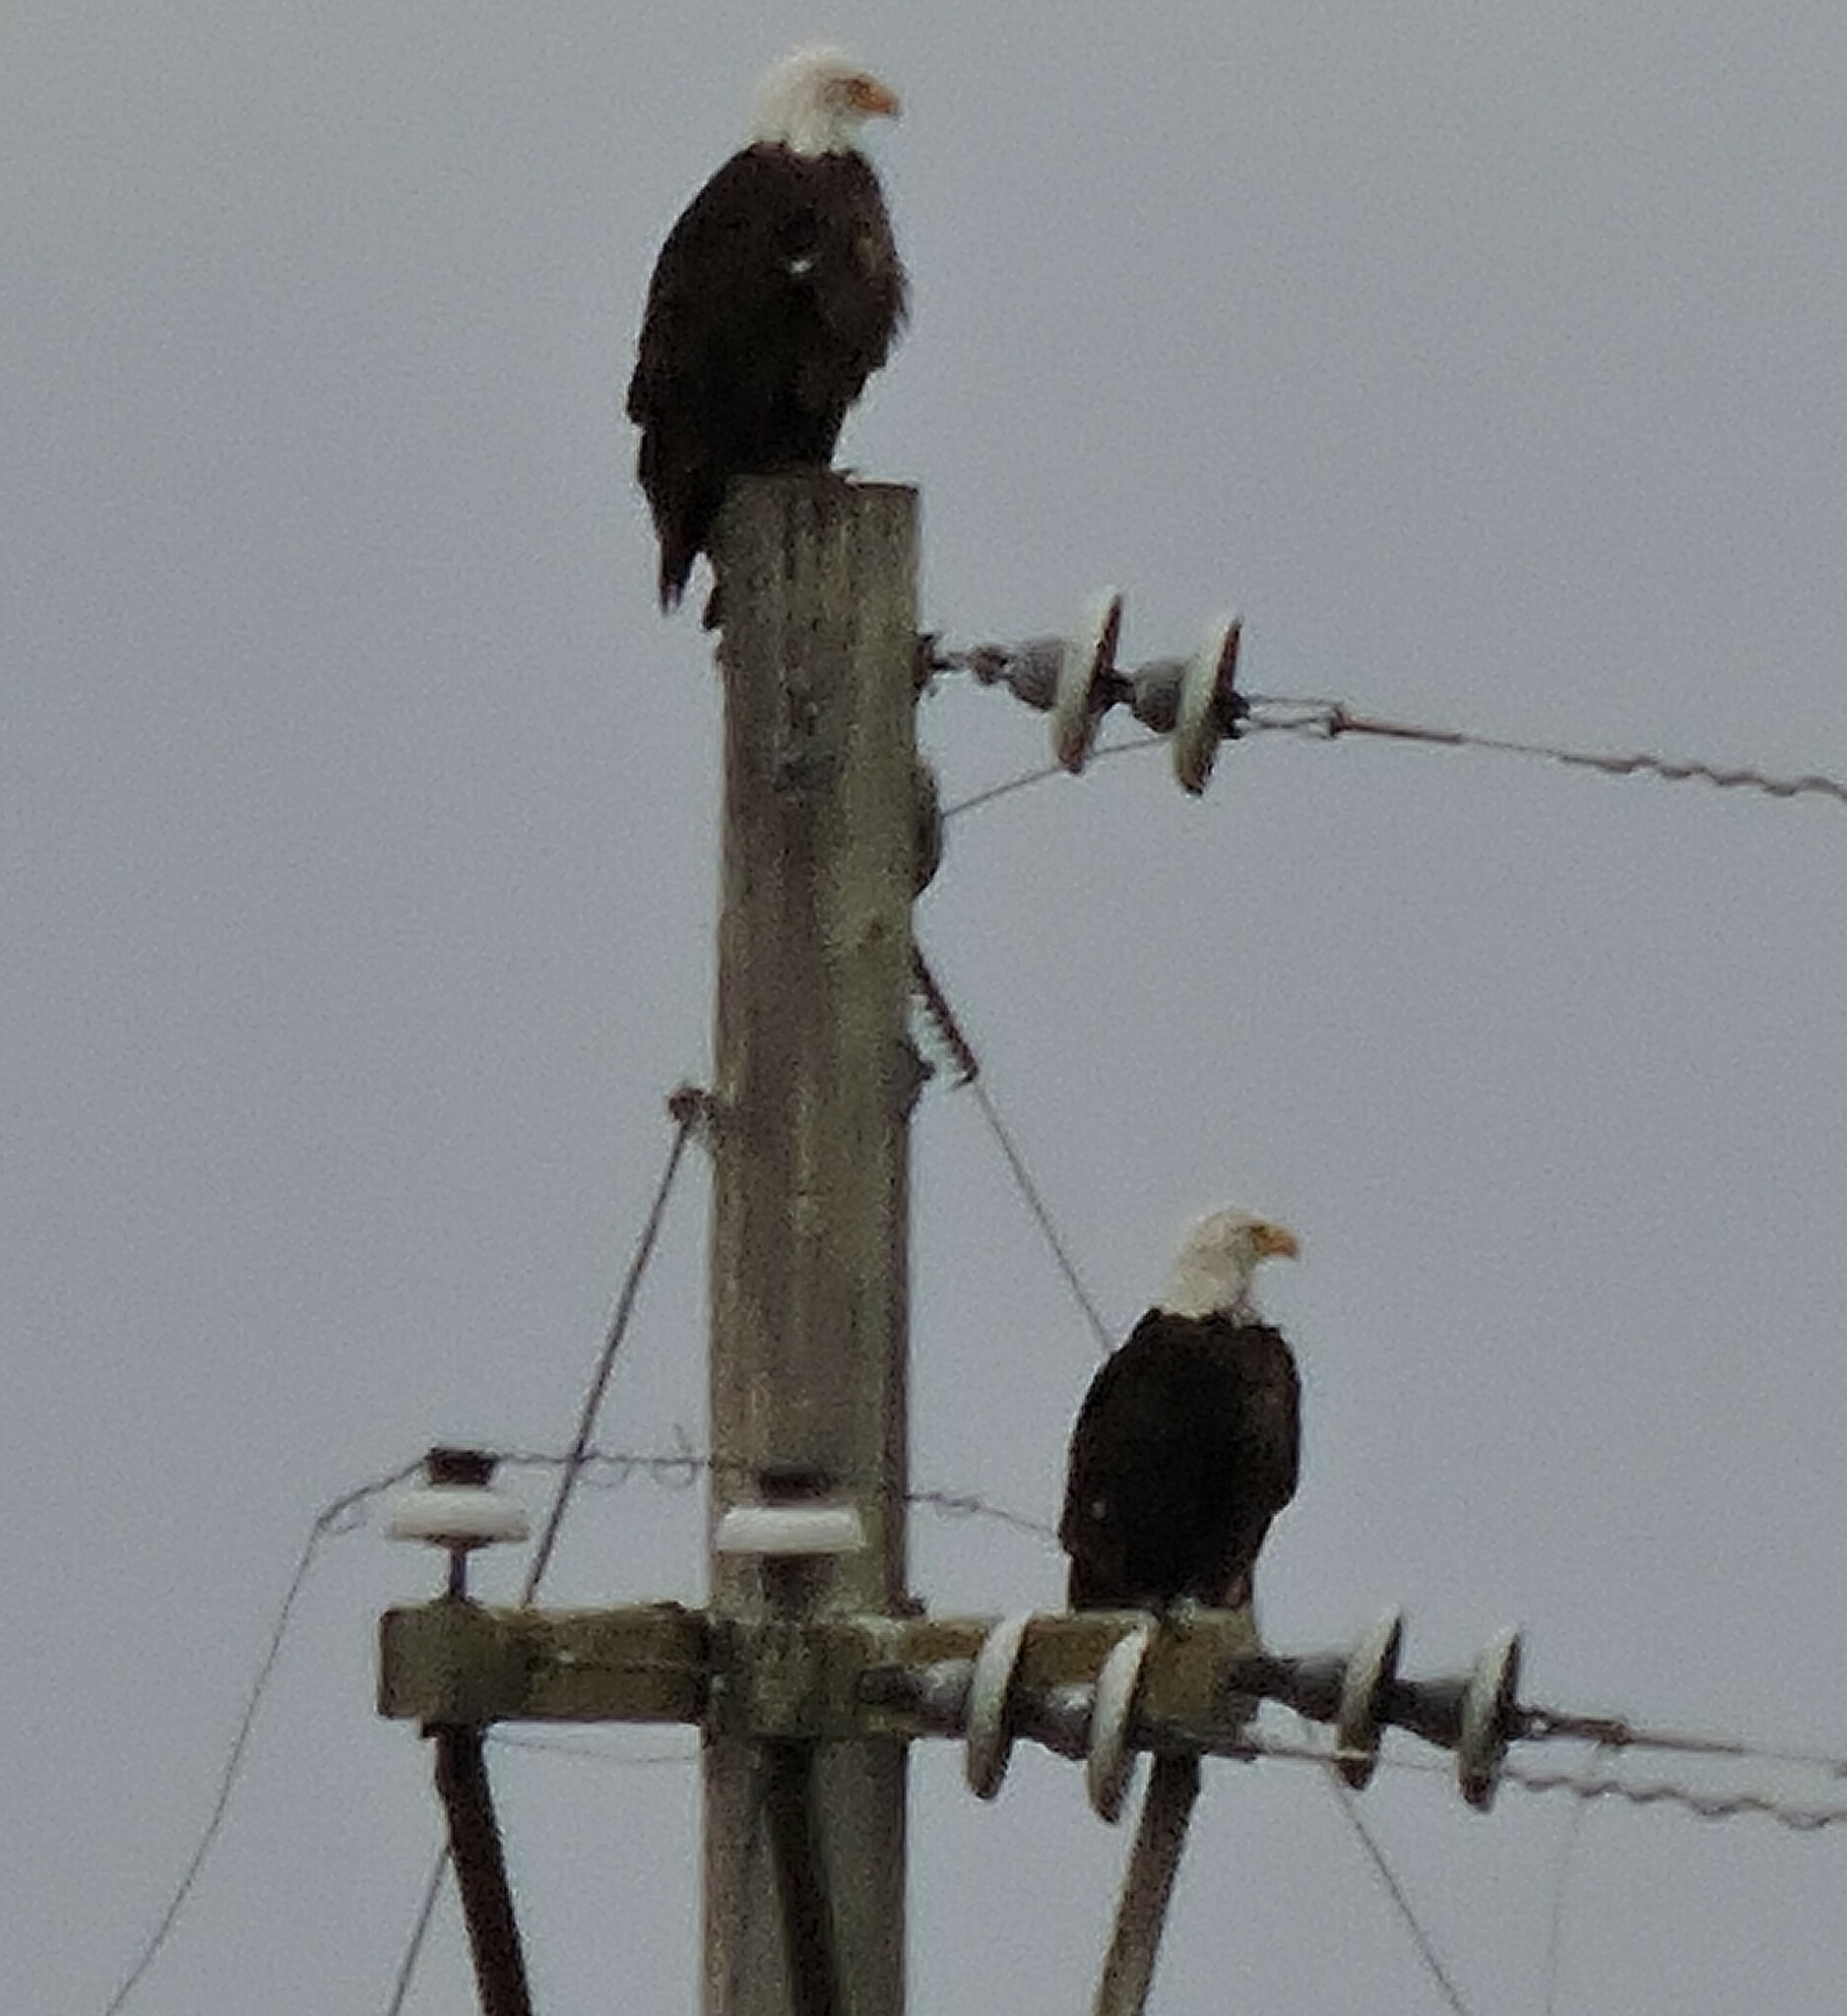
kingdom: Animalia
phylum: Chordata
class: Aves
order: Accipitriformes
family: Accipitridae
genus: Haliaeetus
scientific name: Haliaeetus leucocephalus
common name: Bald eagle
